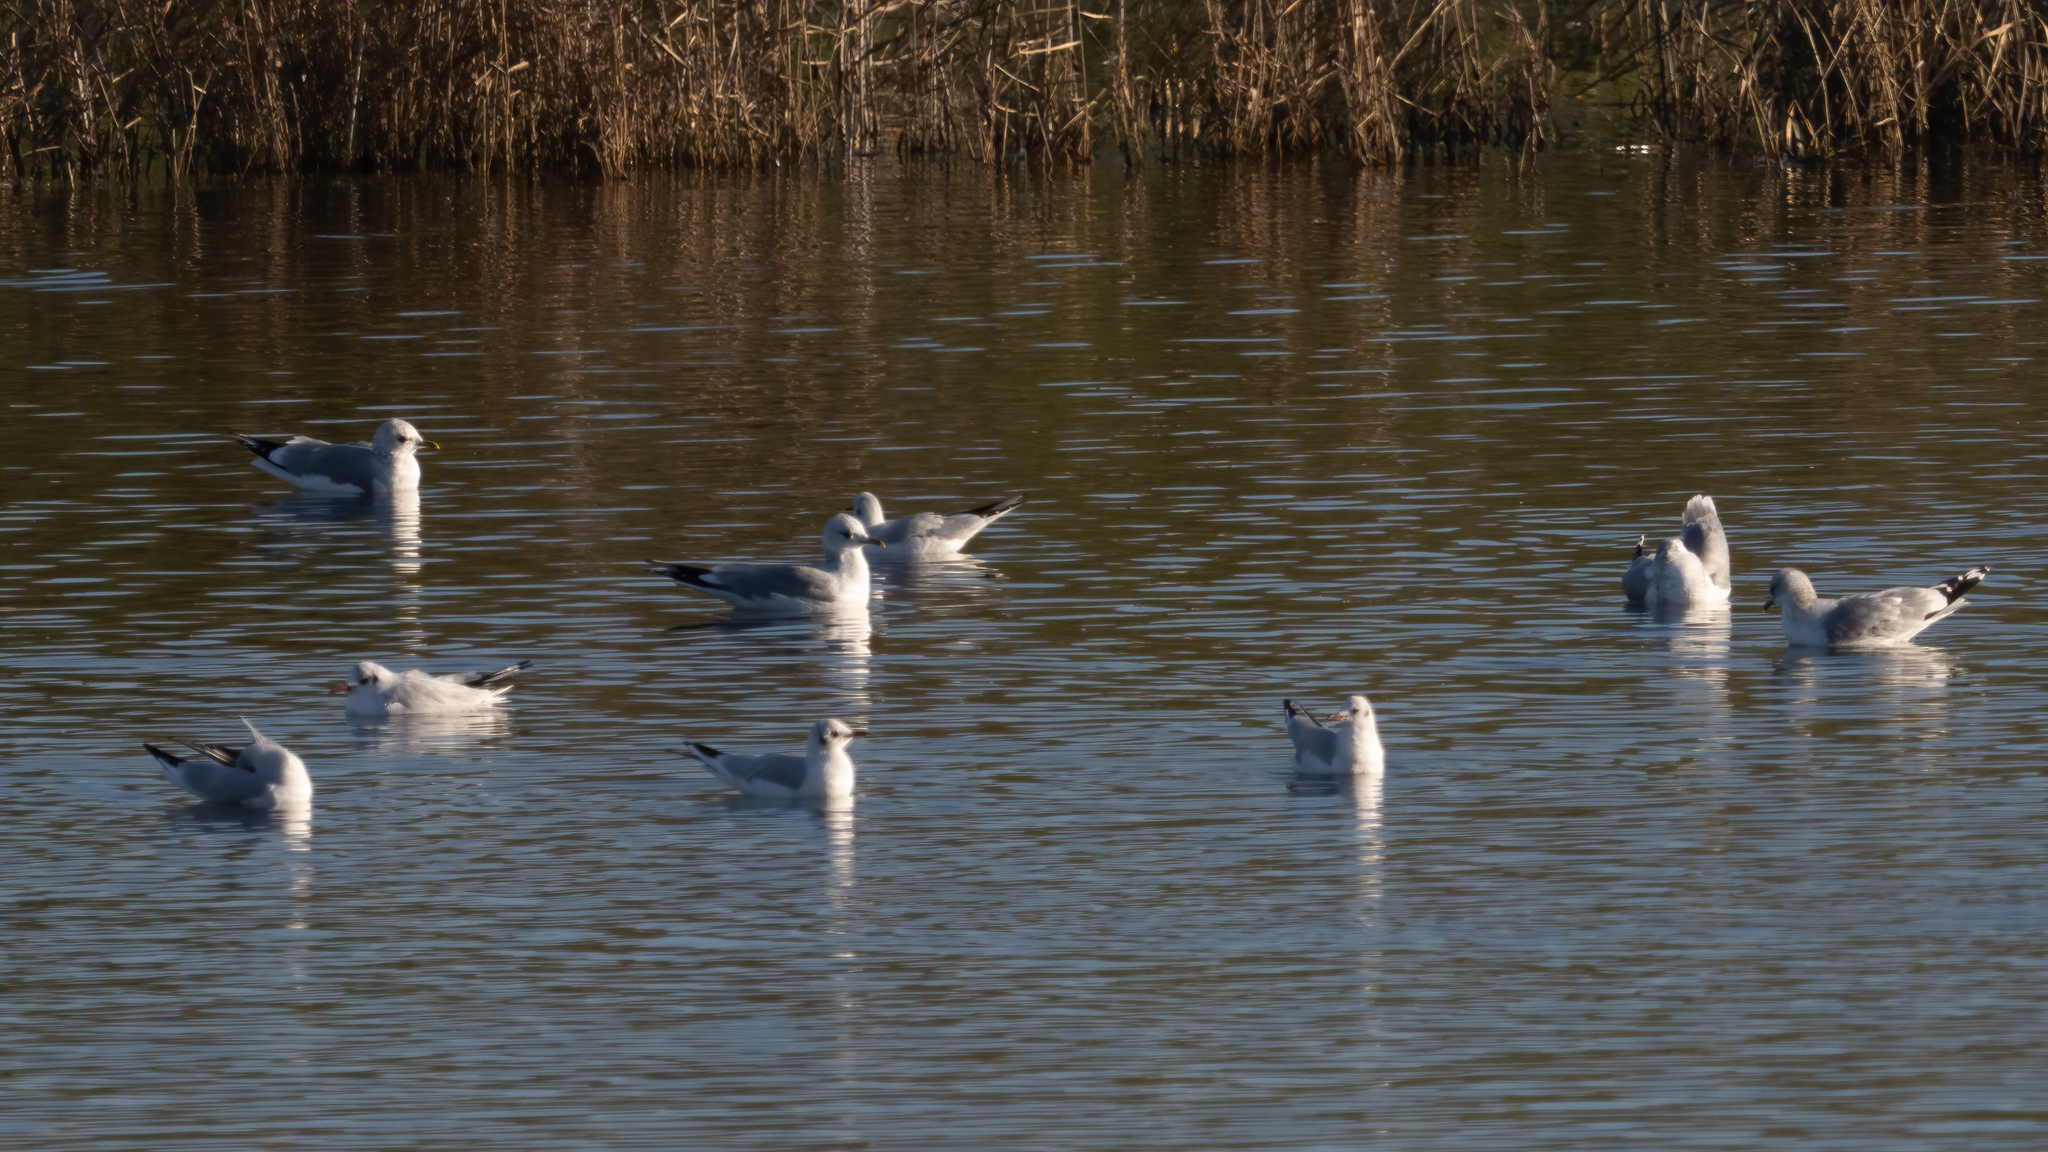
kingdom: Animalia
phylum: Chordata
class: Aves
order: Charadriiformes
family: Laridae
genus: Larus
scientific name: Larus canus
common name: Mew gull
